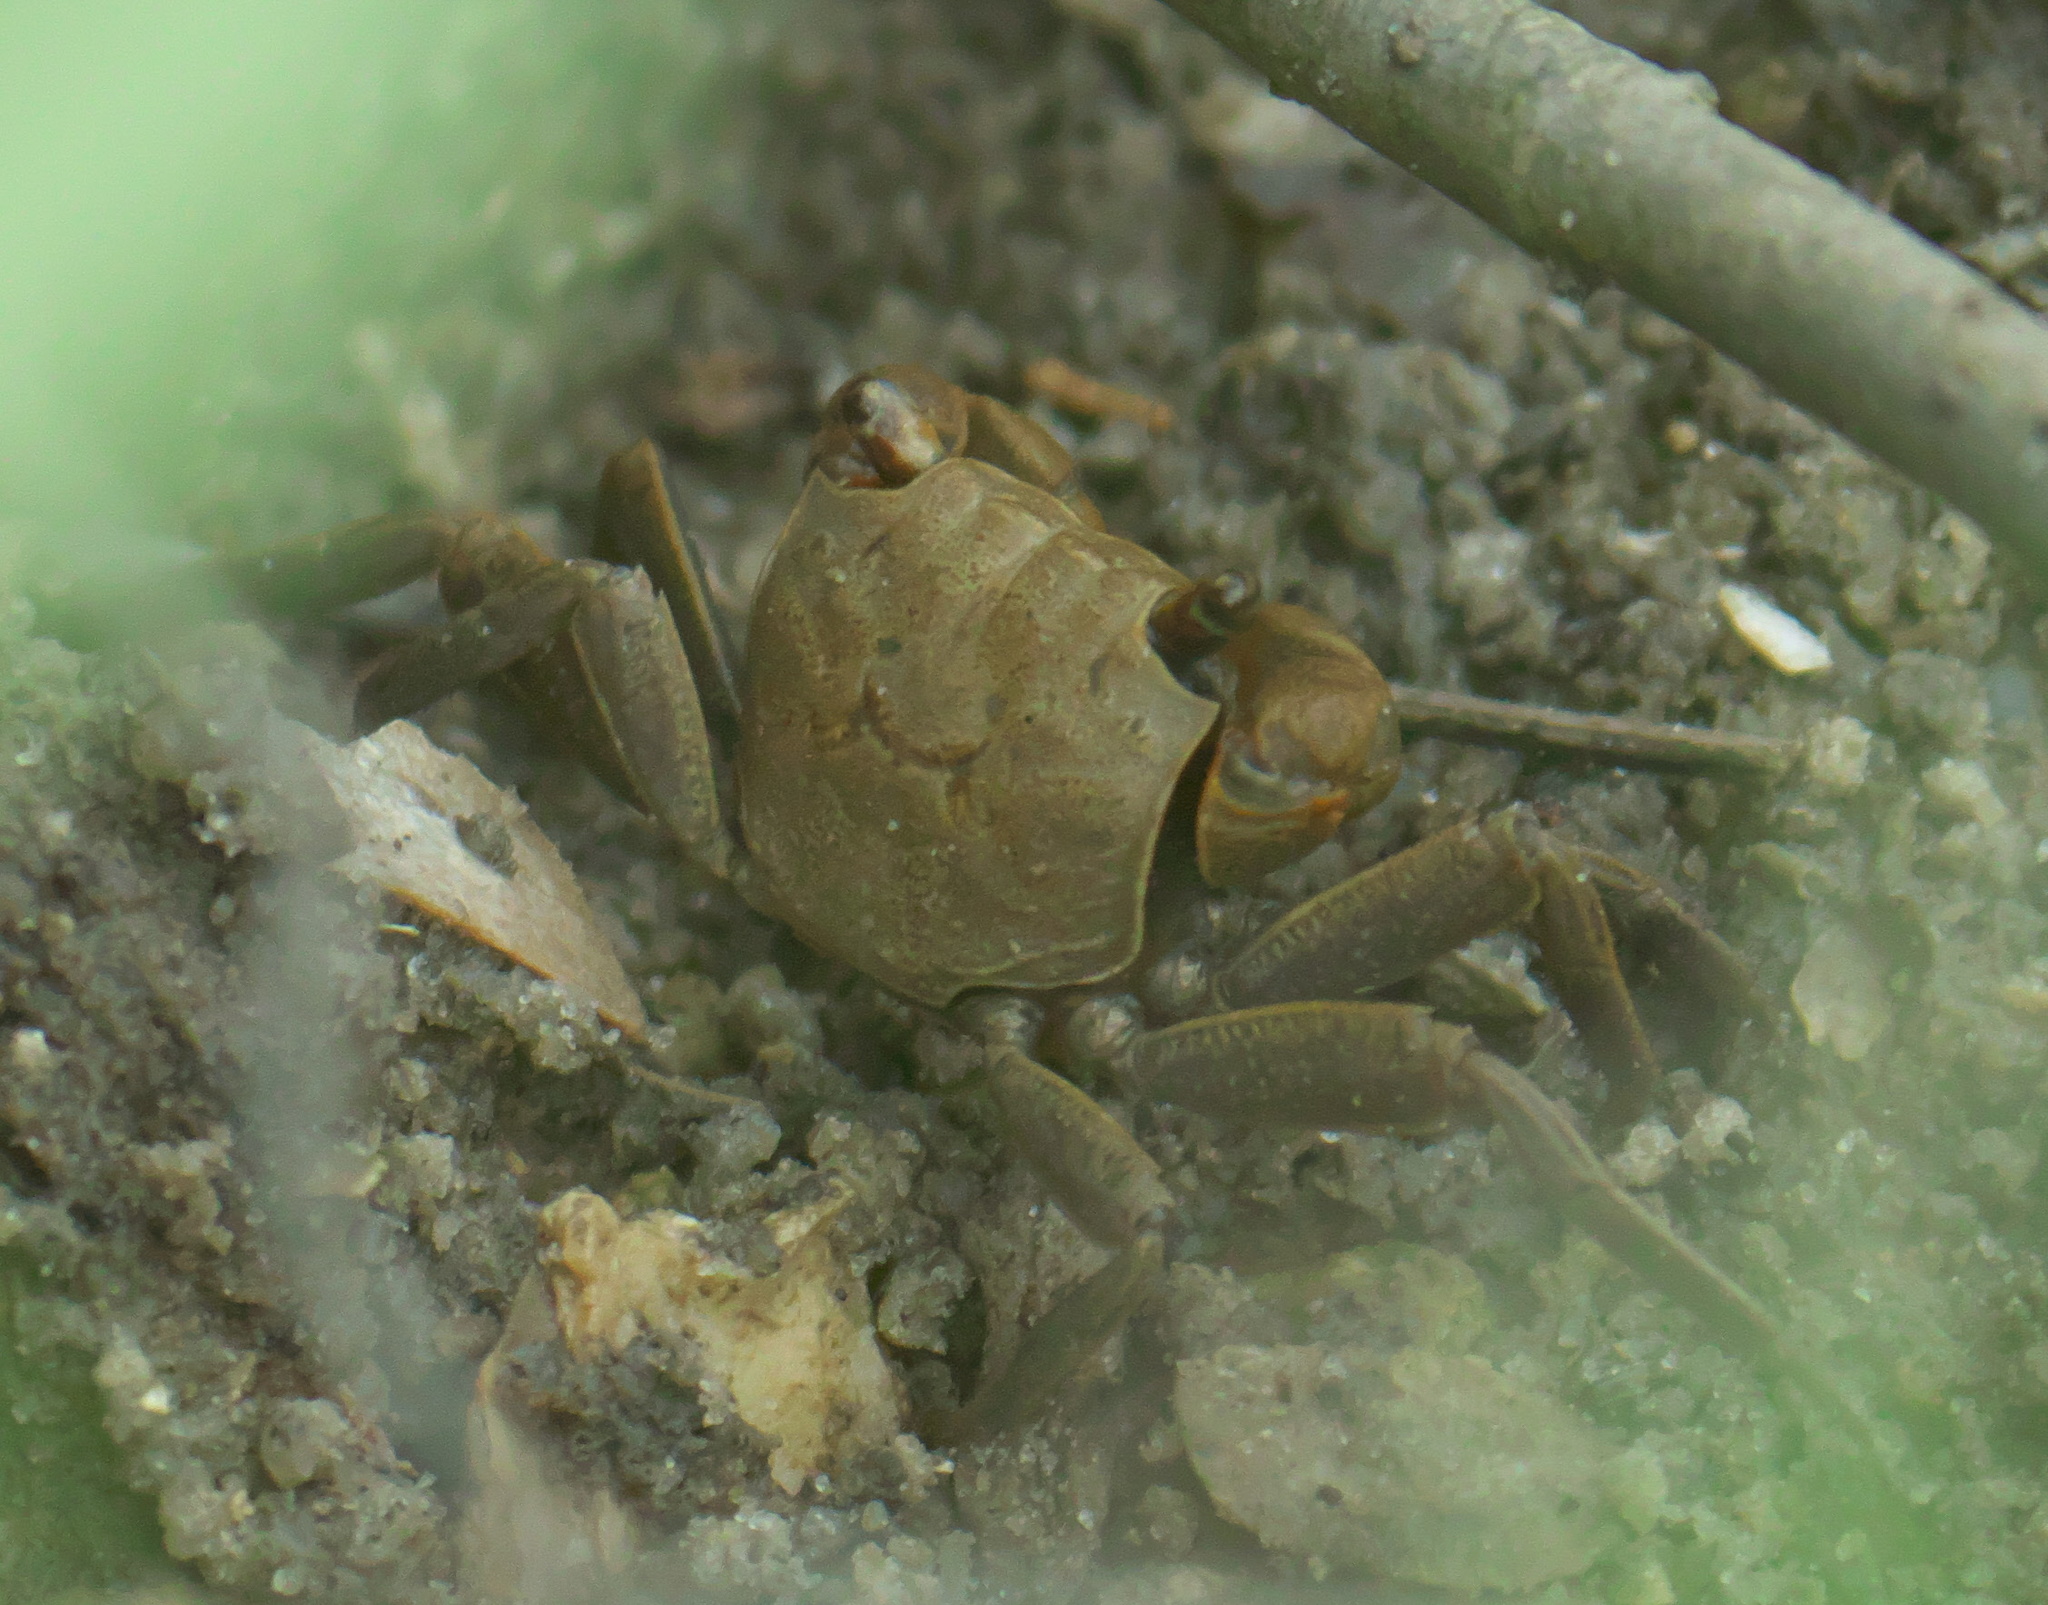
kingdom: Animalia
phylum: Arthropoda
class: Malacostraca
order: Decapoda
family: Sesarmidae
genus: Armases
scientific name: Armases cinereum
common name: Squareback marsh crab
